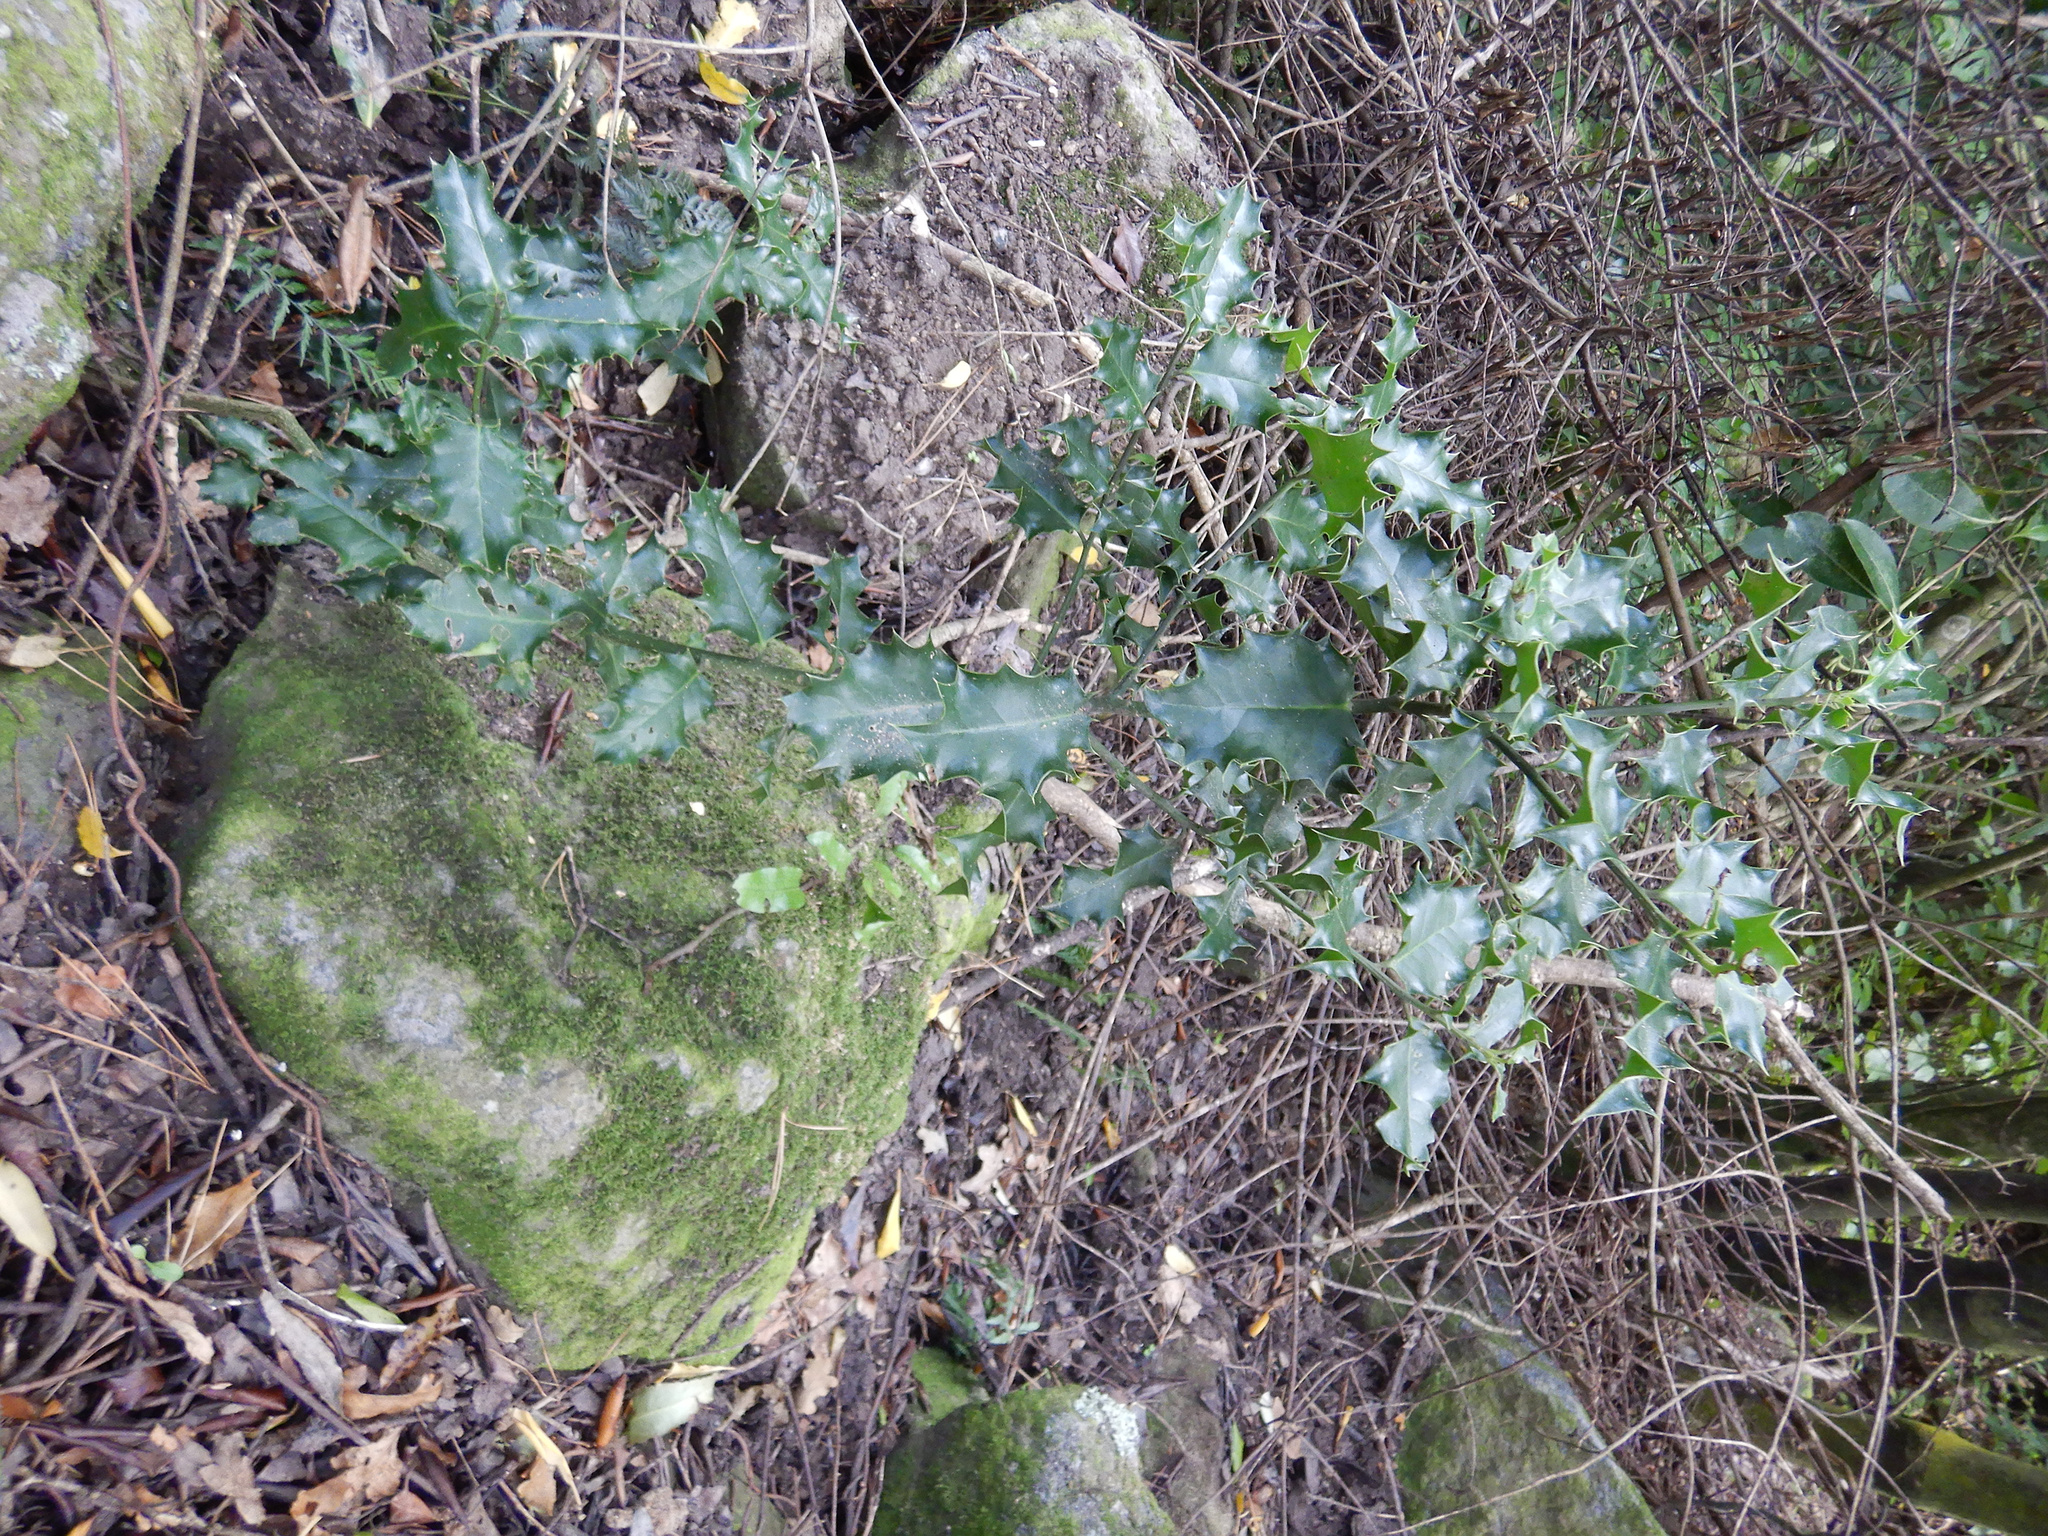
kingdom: Plantae
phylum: Tracheophyta
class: Magnoliopsida
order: Aquifoliales
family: Aquifoliaceae
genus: Ilex
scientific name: Ilex aquifolium
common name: English holly
